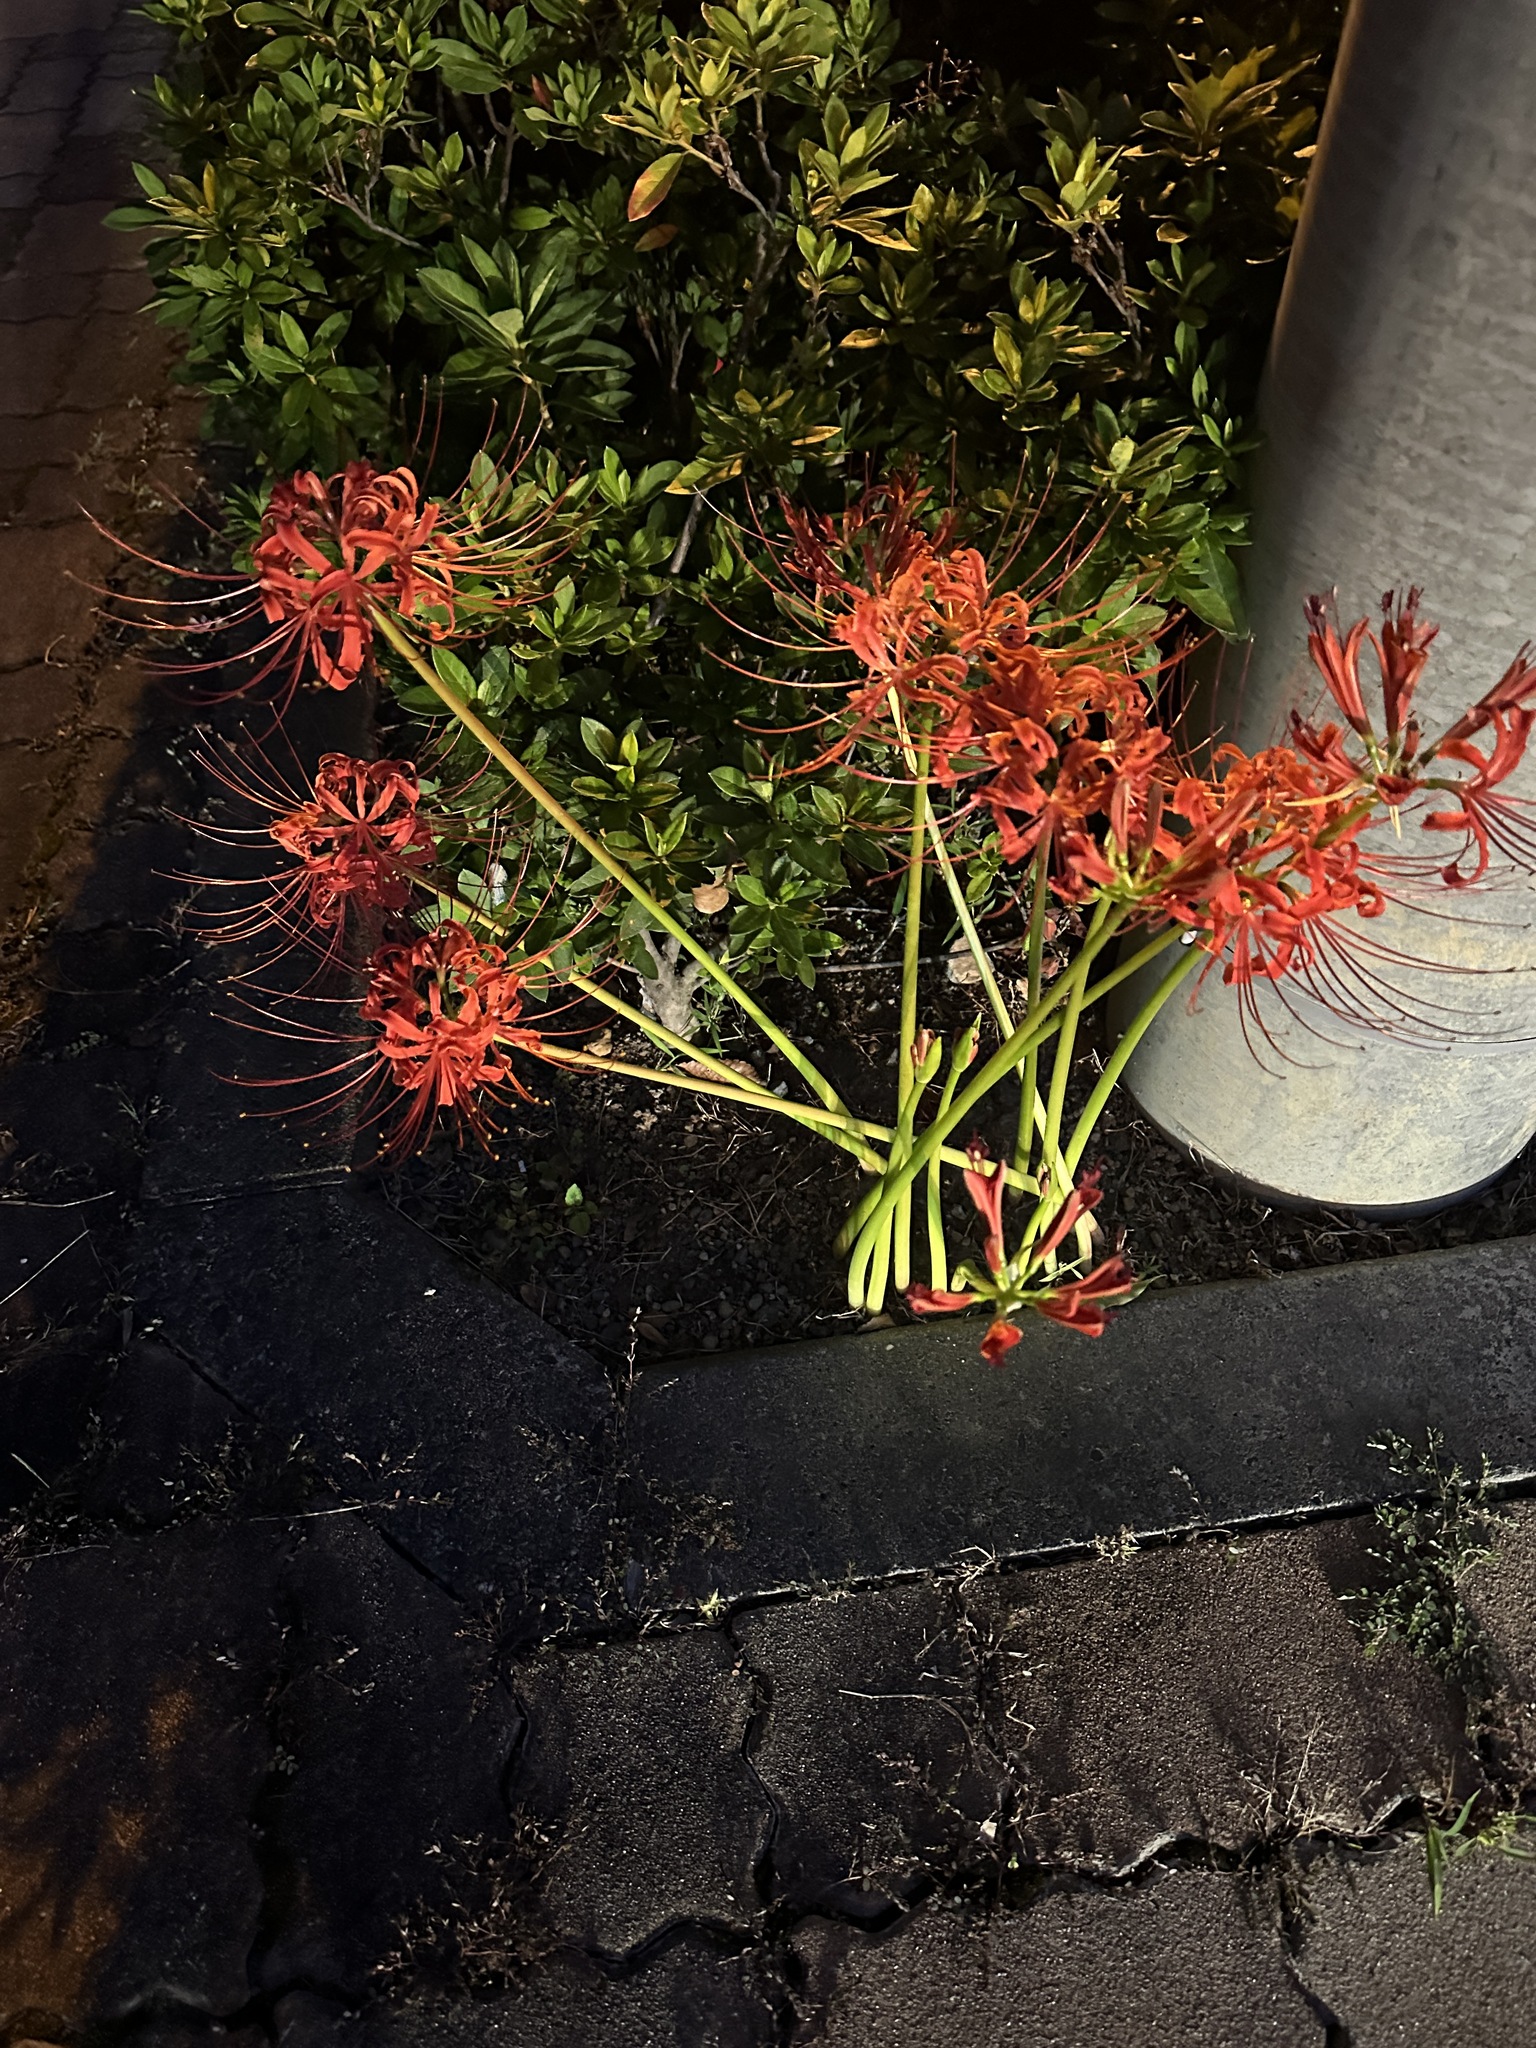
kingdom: Plantae
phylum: Tracheophyta
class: Liliopsida
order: Asparagales
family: Amaryllidaceae
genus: Lycoris
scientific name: Lycoris radiata
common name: Red spider lily
